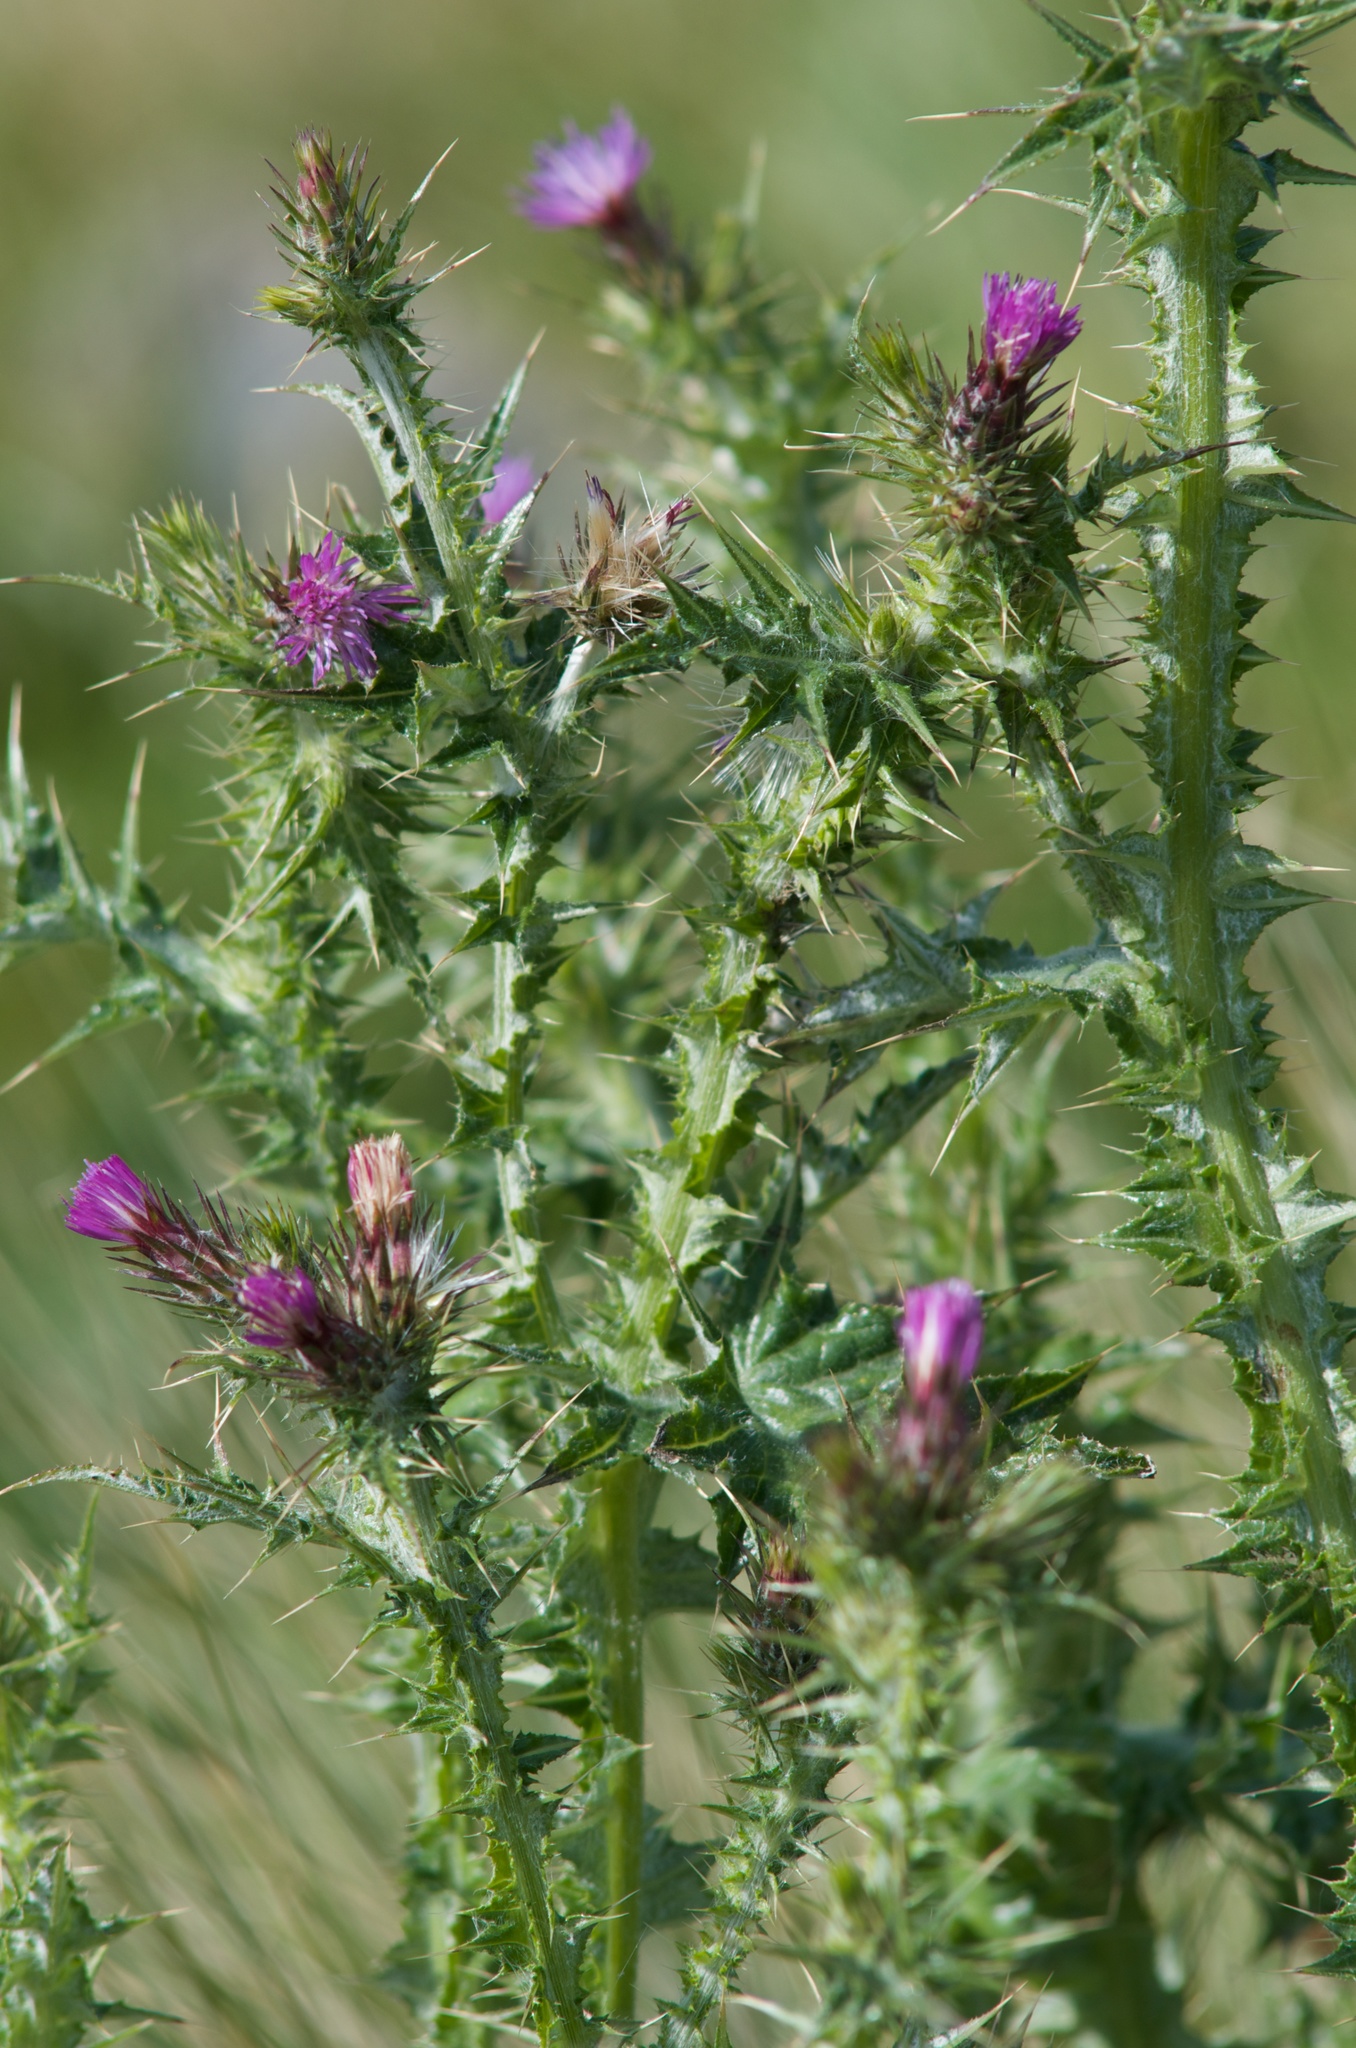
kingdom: Plantae
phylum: Tracheophyta
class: Magnoliopsida
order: Asterales
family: Asteraceae
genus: Carduus
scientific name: Carduus pycnocephalus
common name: Plymouth thistle
